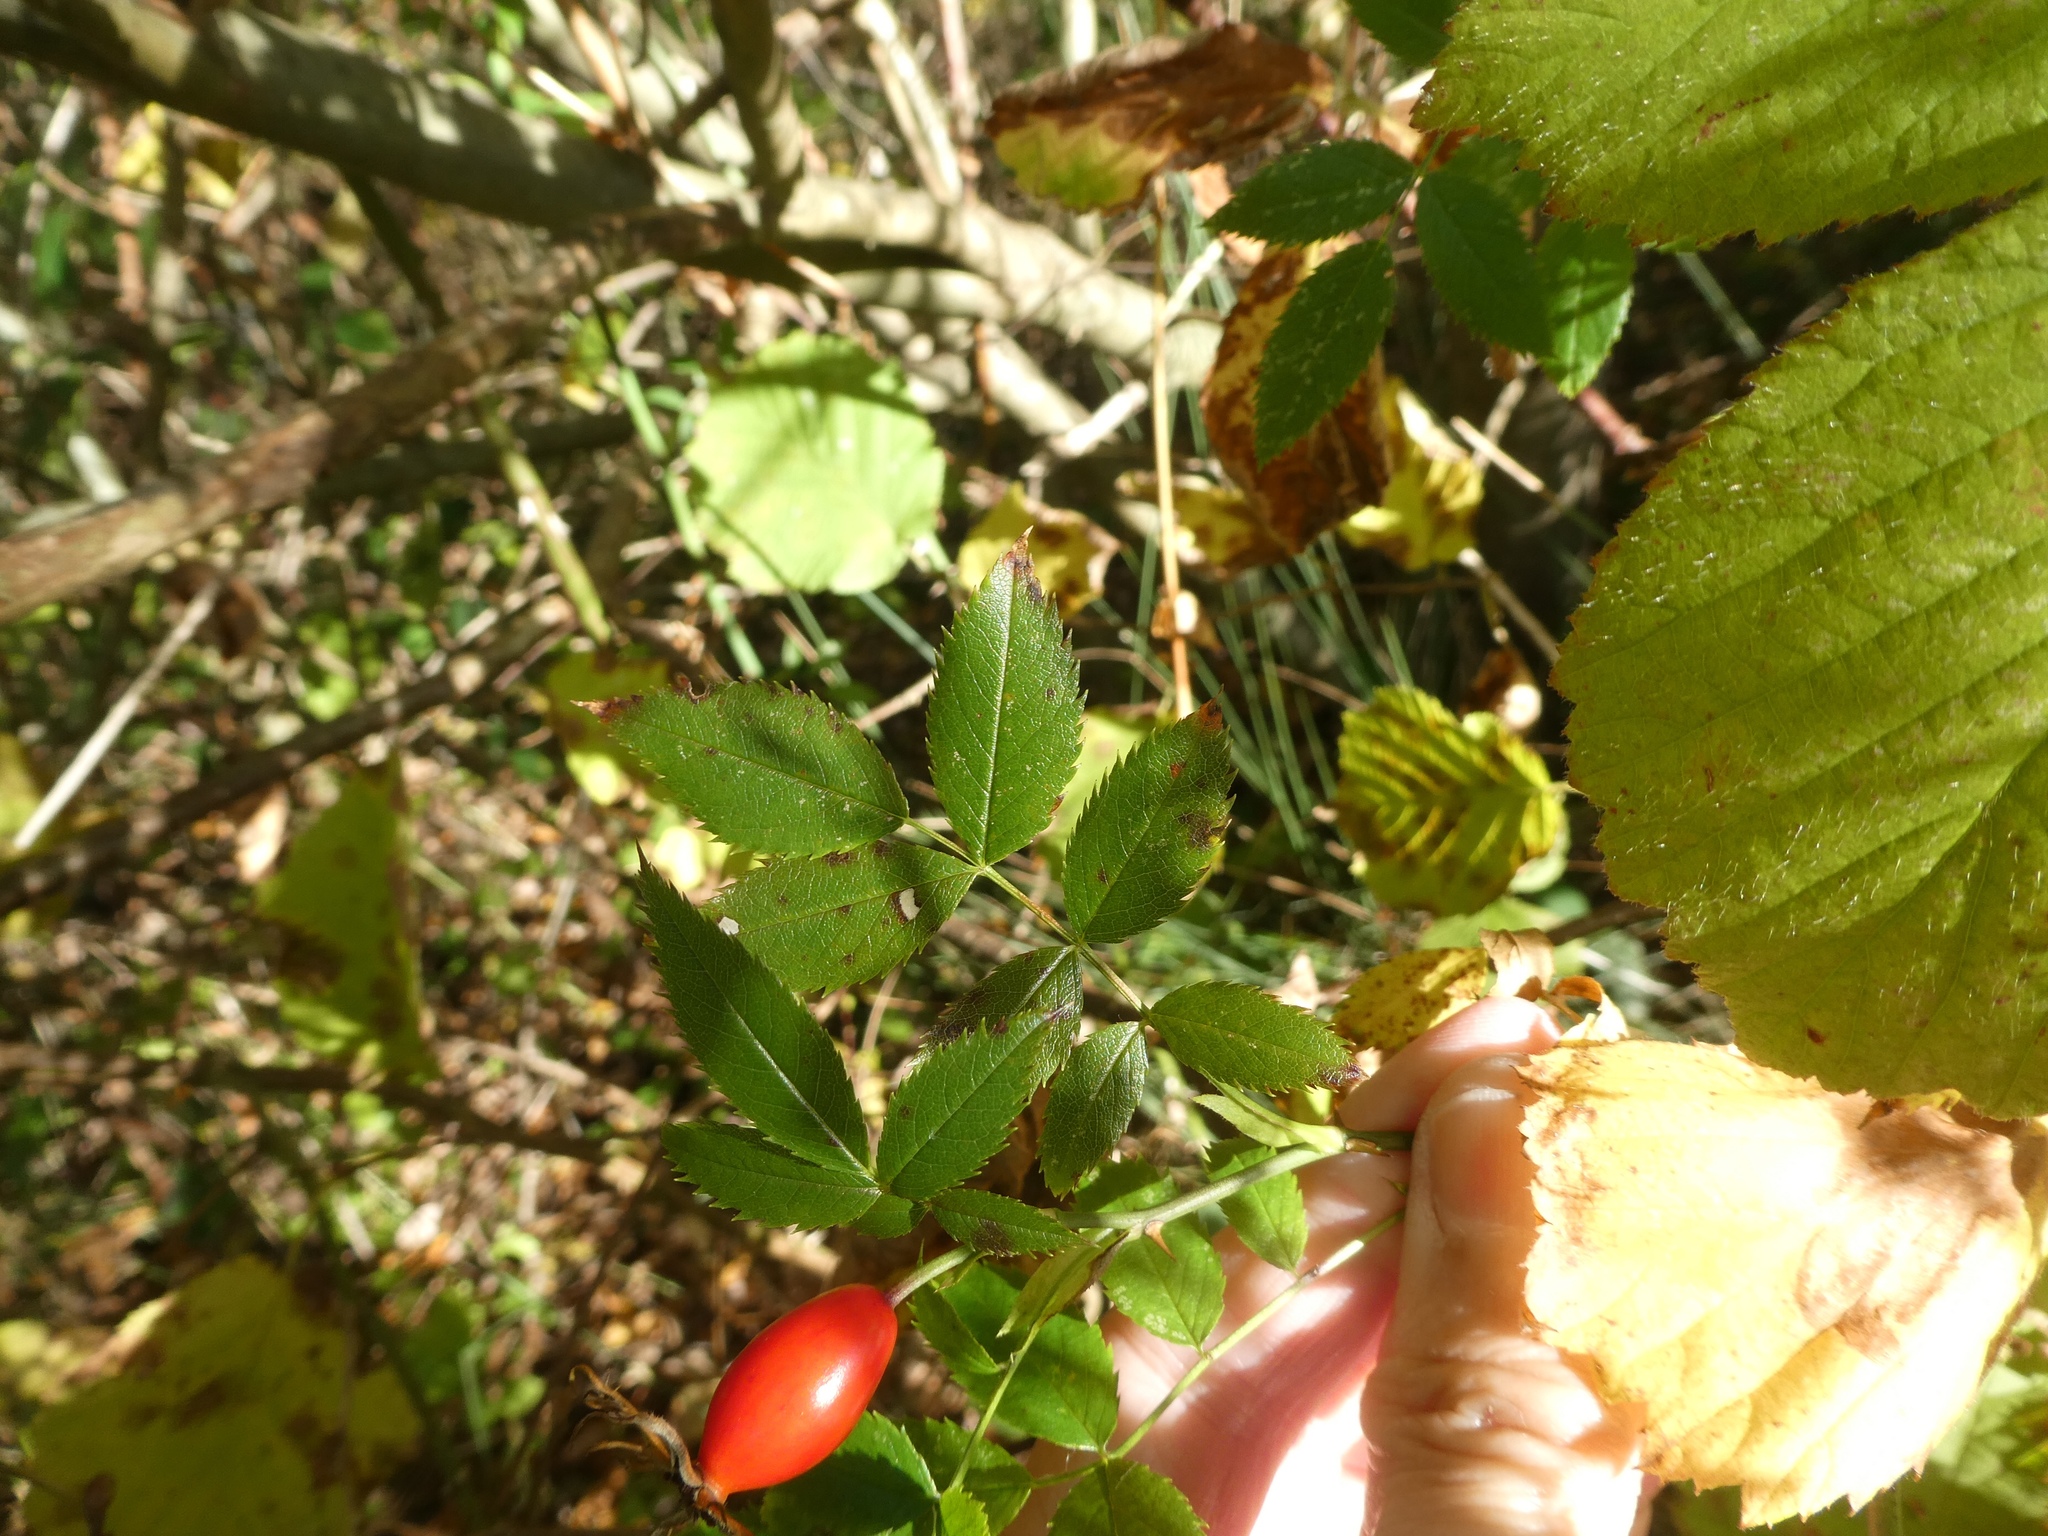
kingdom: Plantae
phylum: Tracheophyta
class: Magnoliopsida
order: Rosales
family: Rosaceae
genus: Rosa
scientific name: Rosa canina
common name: Dog rose
